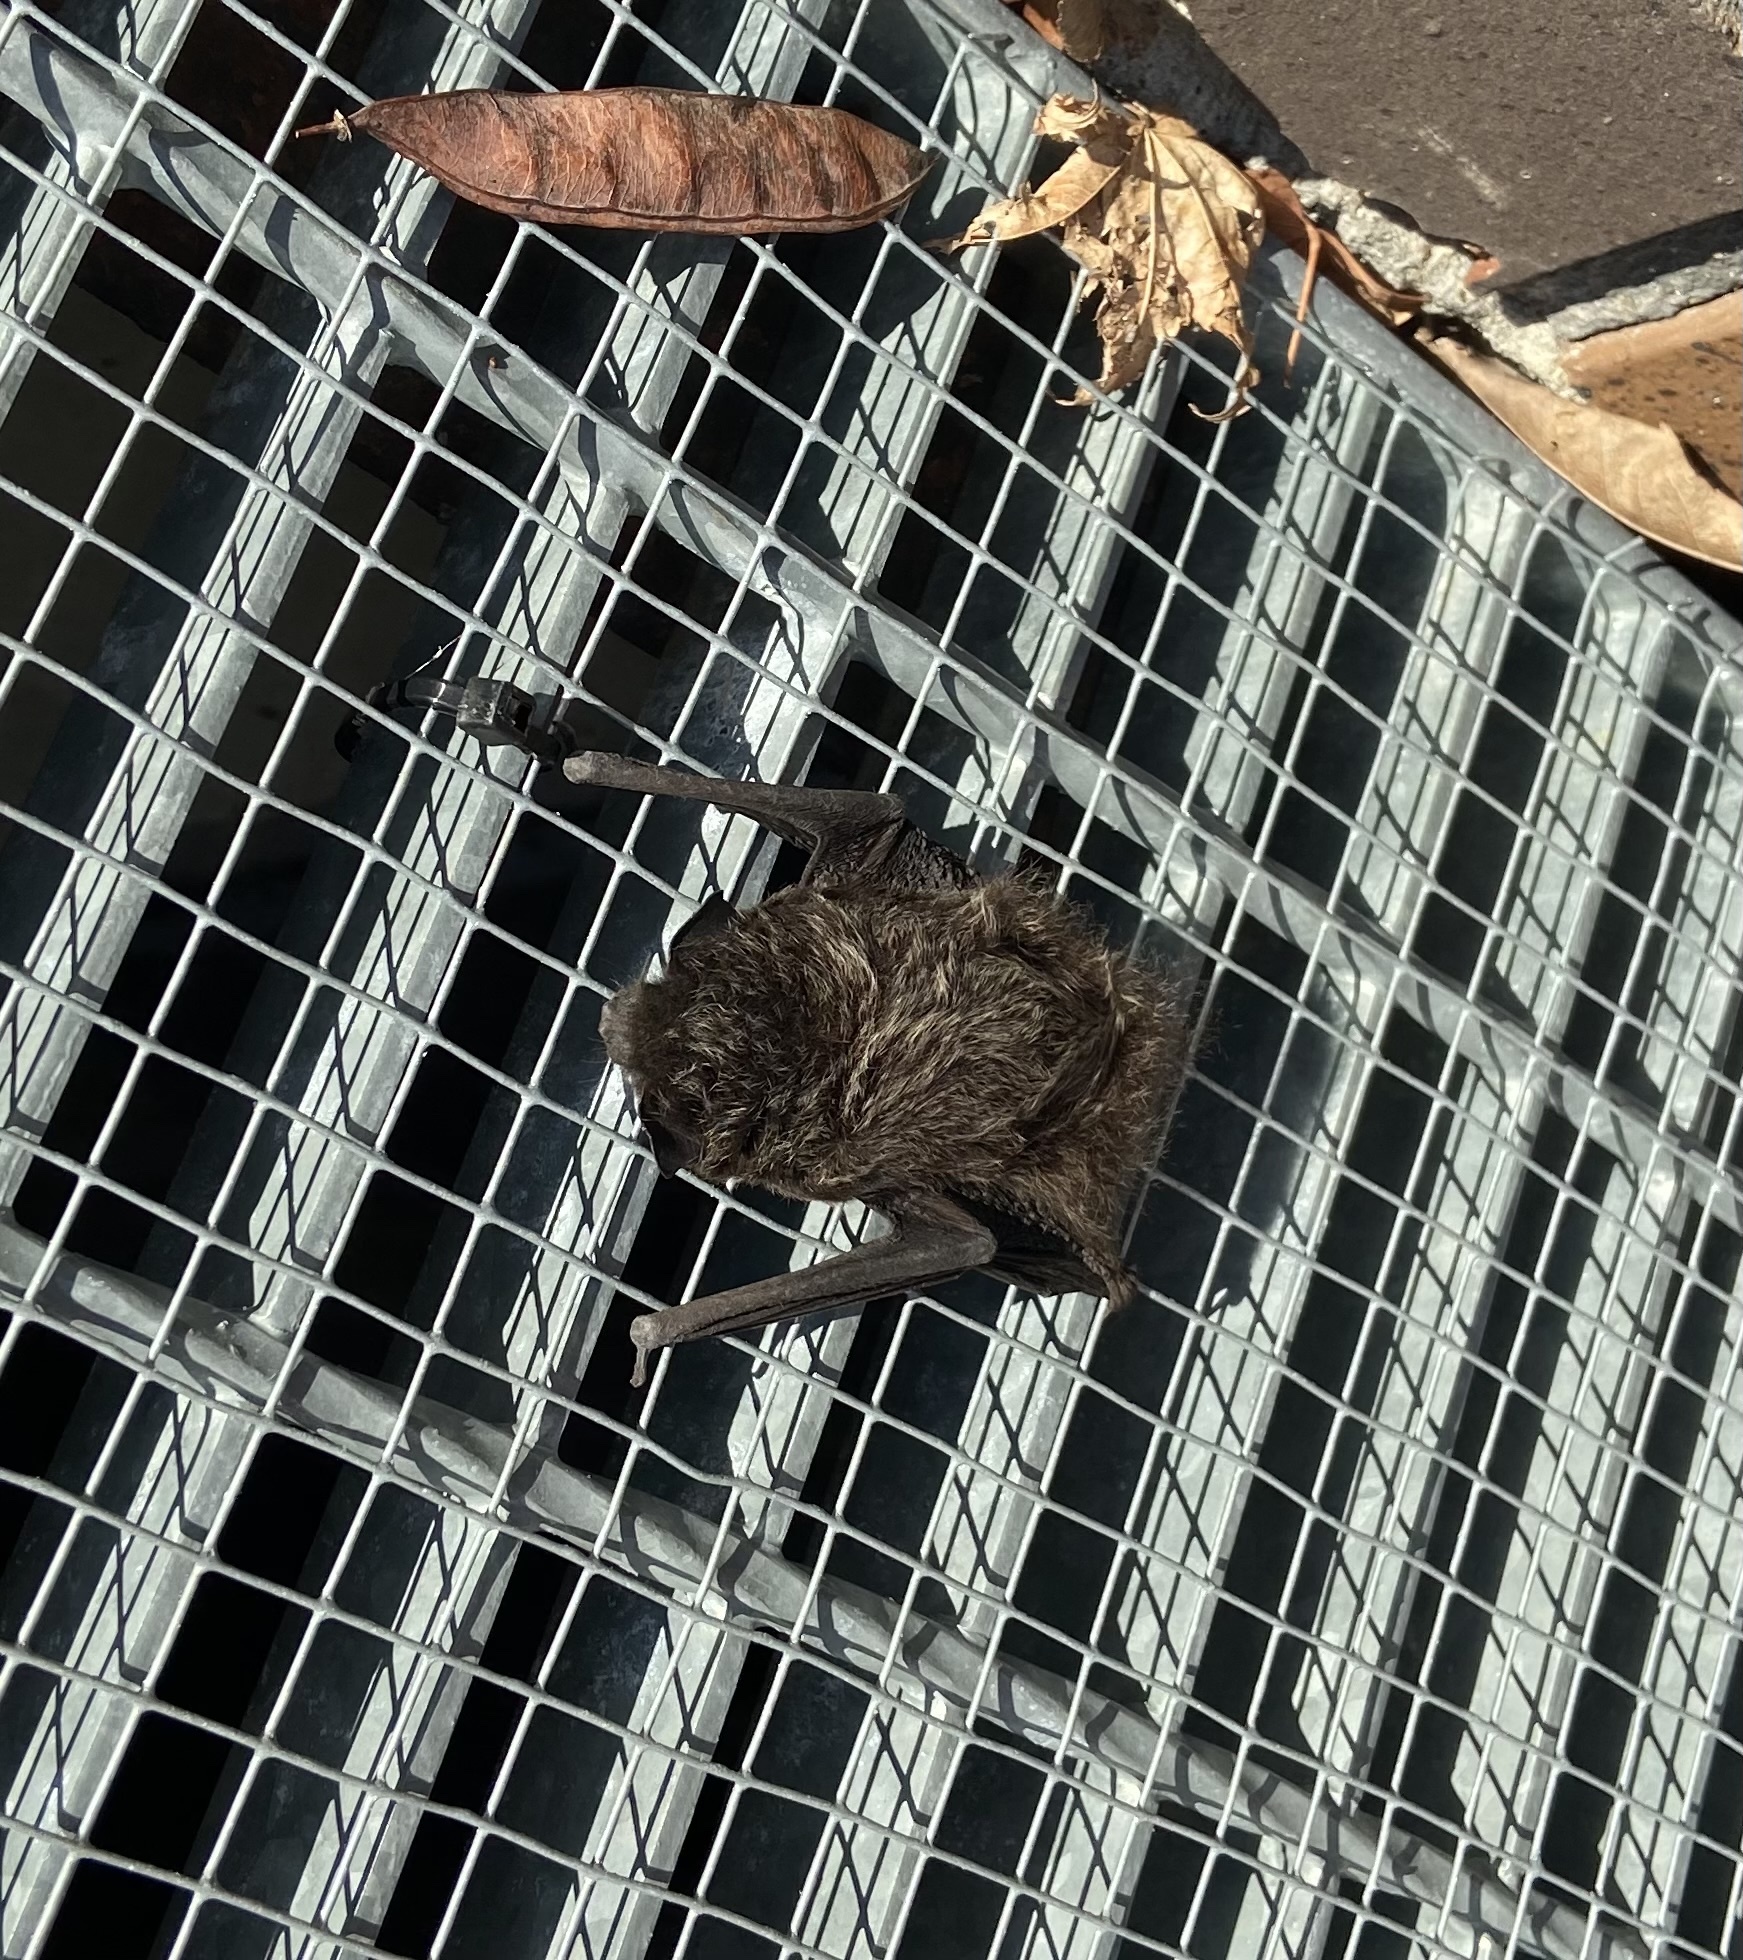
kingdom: Animalia
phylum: Chordata
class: Mammalia
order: Chiroptera
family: Vespertilionidae
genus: Lasionycteris
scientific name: Lasionycteris noctivagans
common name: Silver-haired bat
